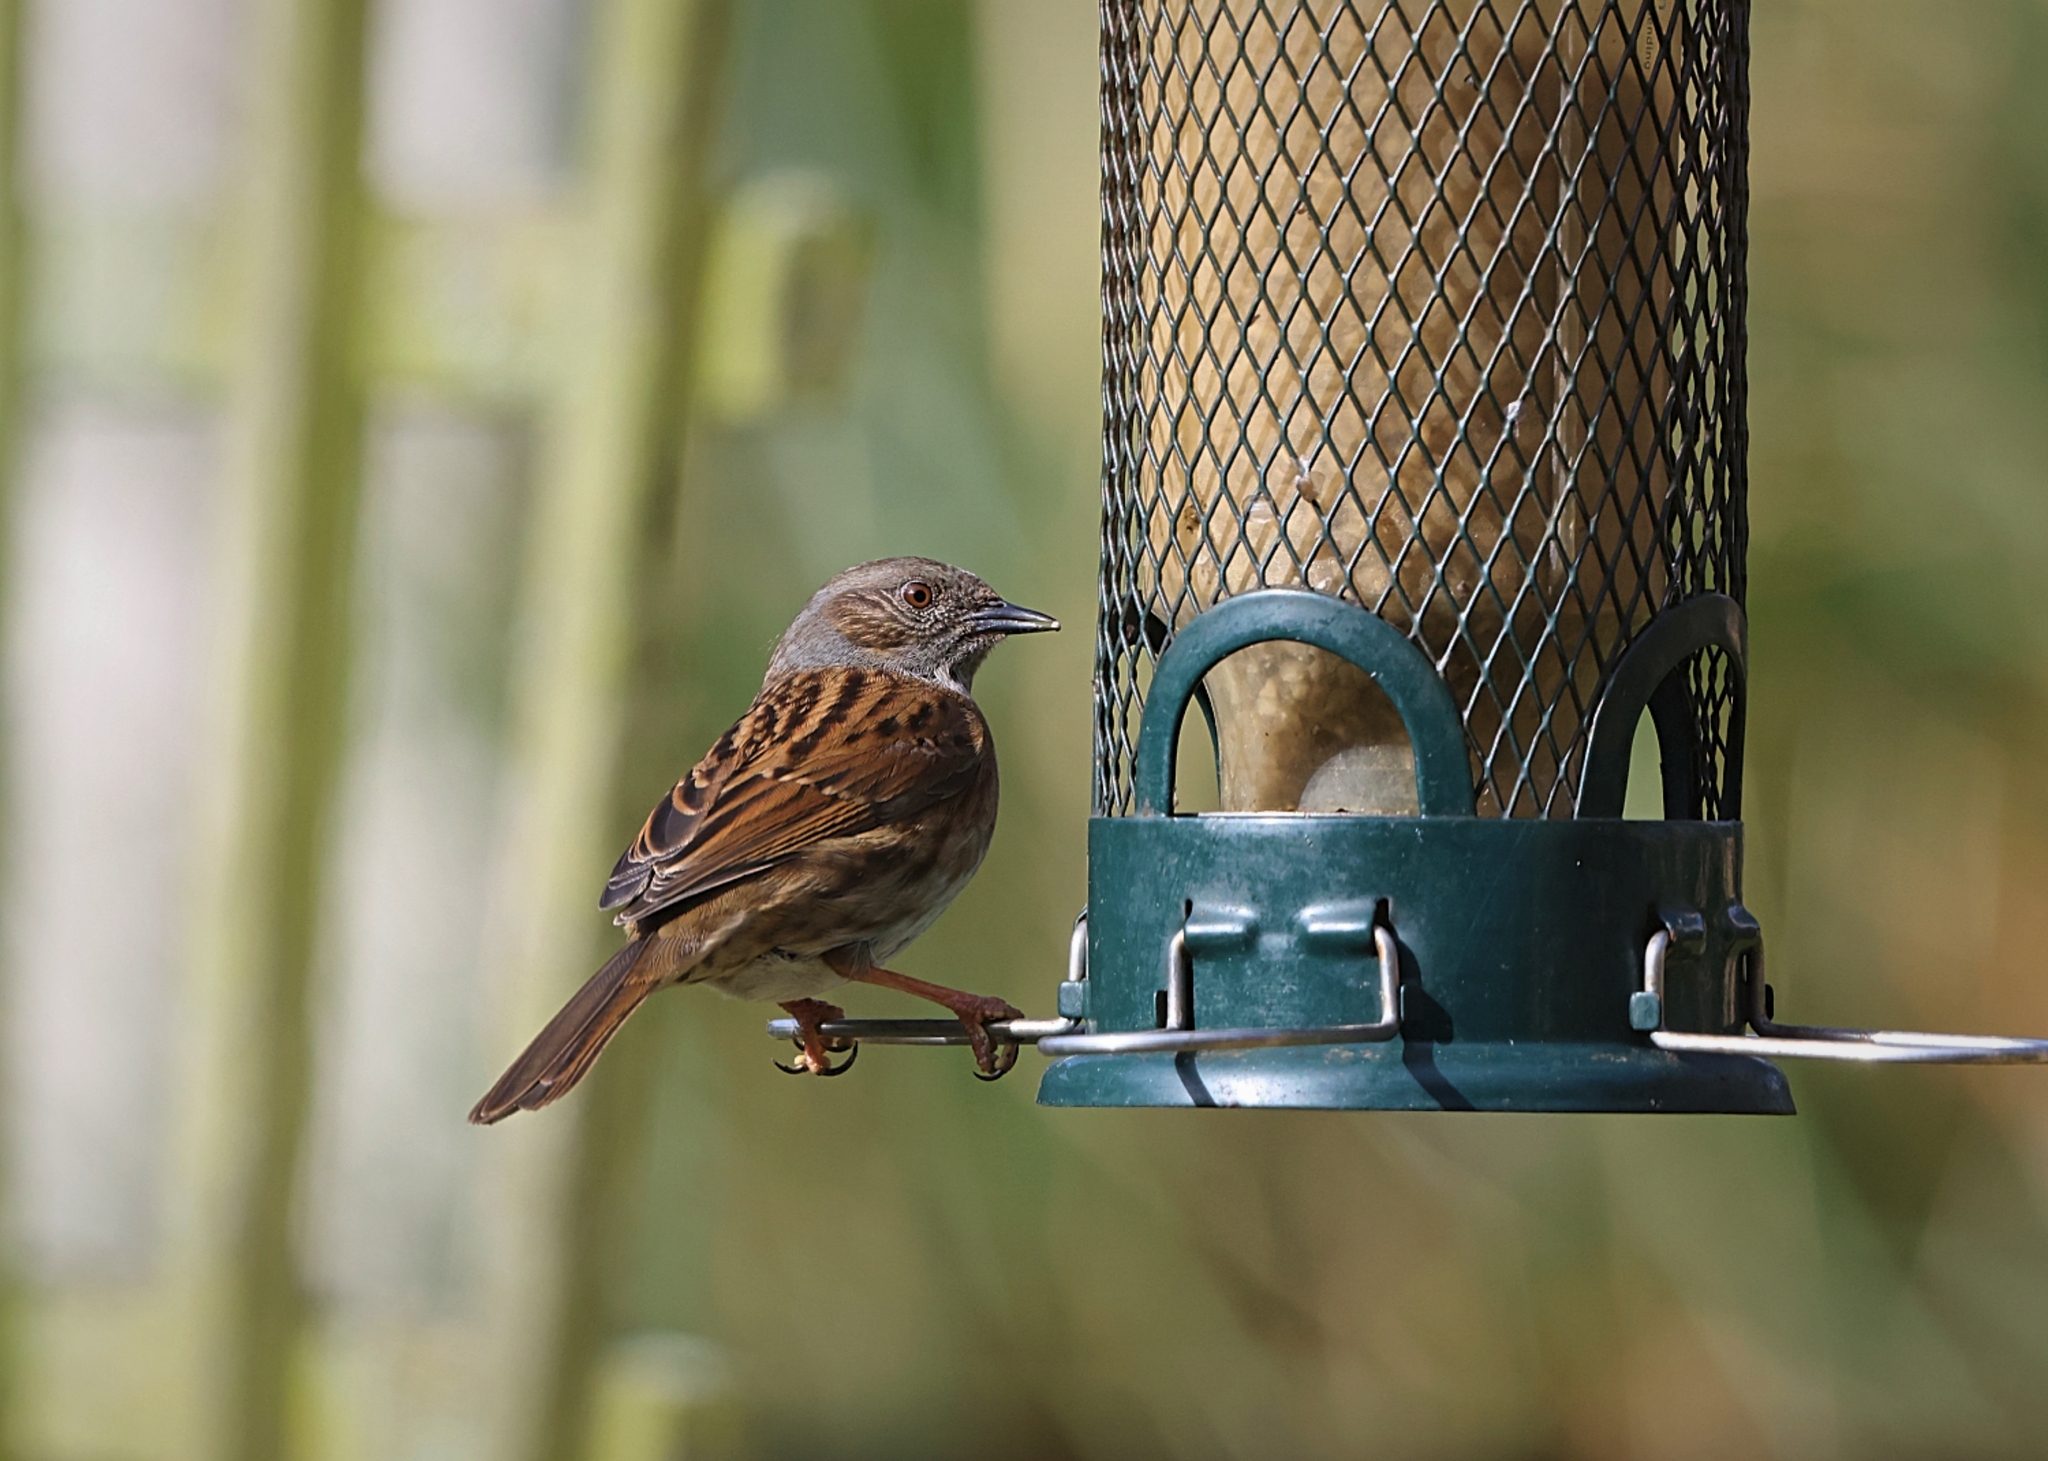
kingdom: Animalia
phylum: Chordata
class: Aves
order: Passeriformes
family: Prunellidae
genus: Prunella
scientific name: Prunella modularis
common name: Dunnock
